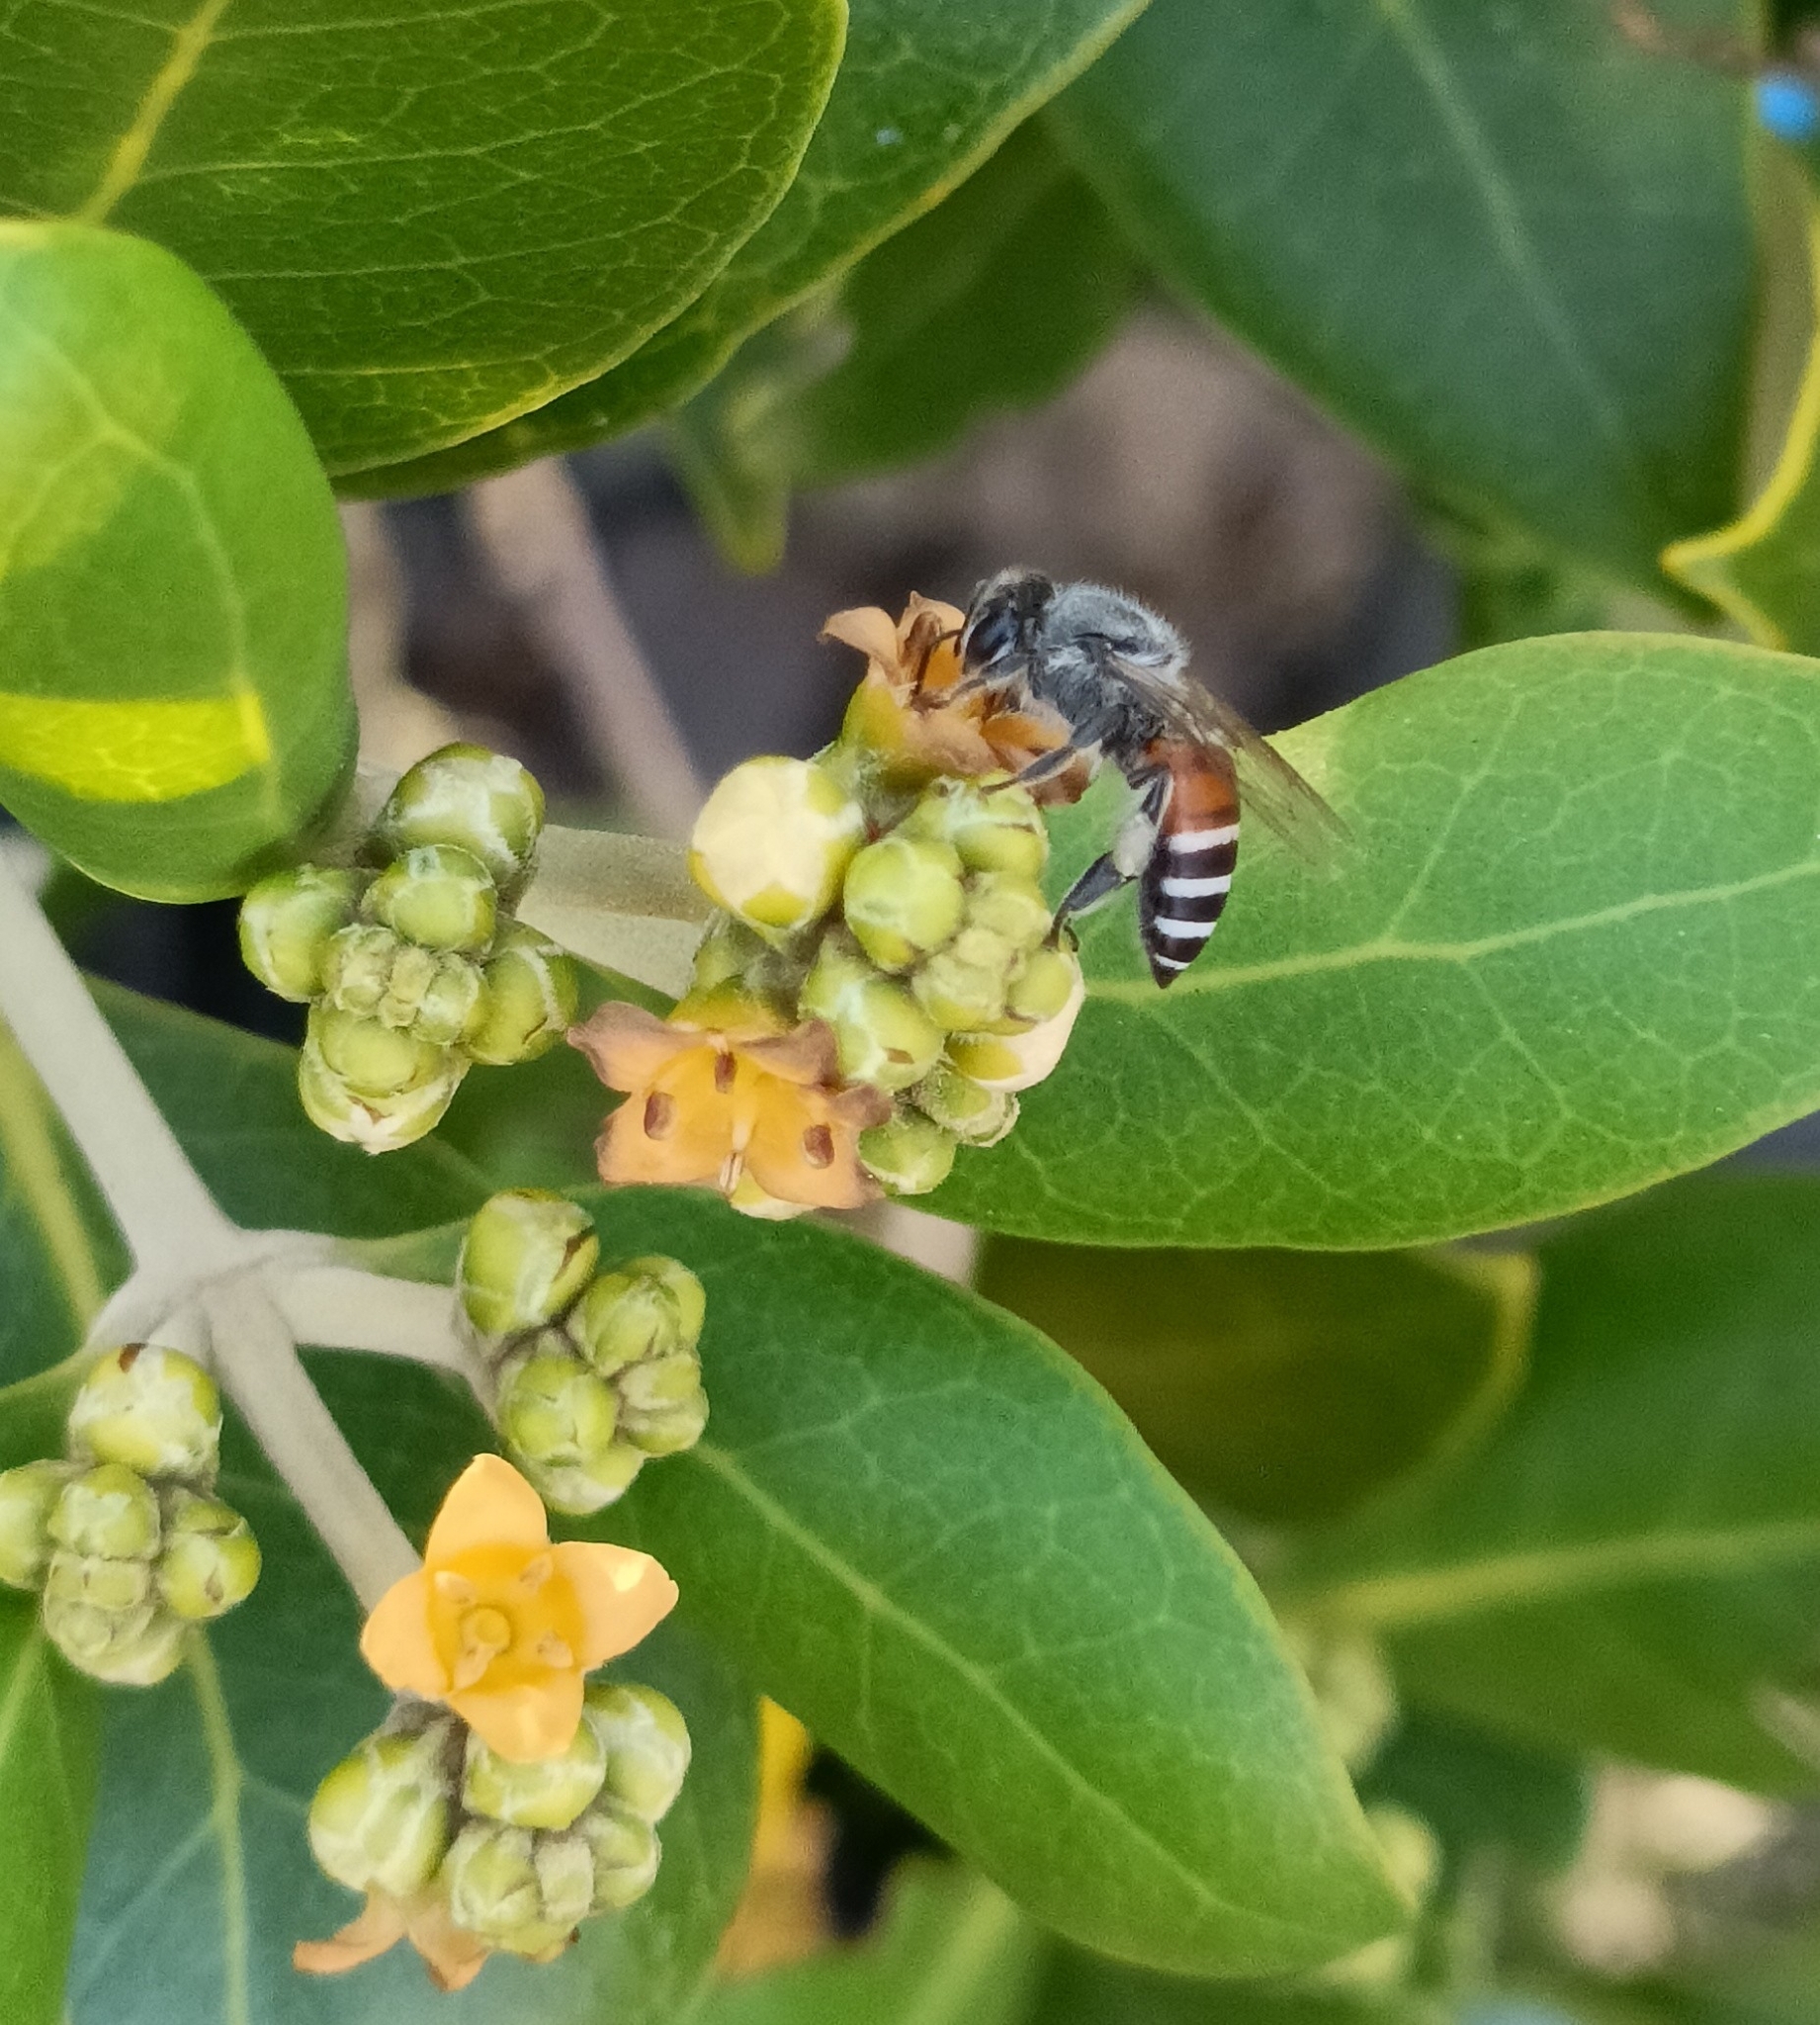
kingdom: Animalia
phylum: Arthropoda
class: Insecta
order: Hymenoptera
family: Apidae
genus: Apis
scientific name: Apis florea
